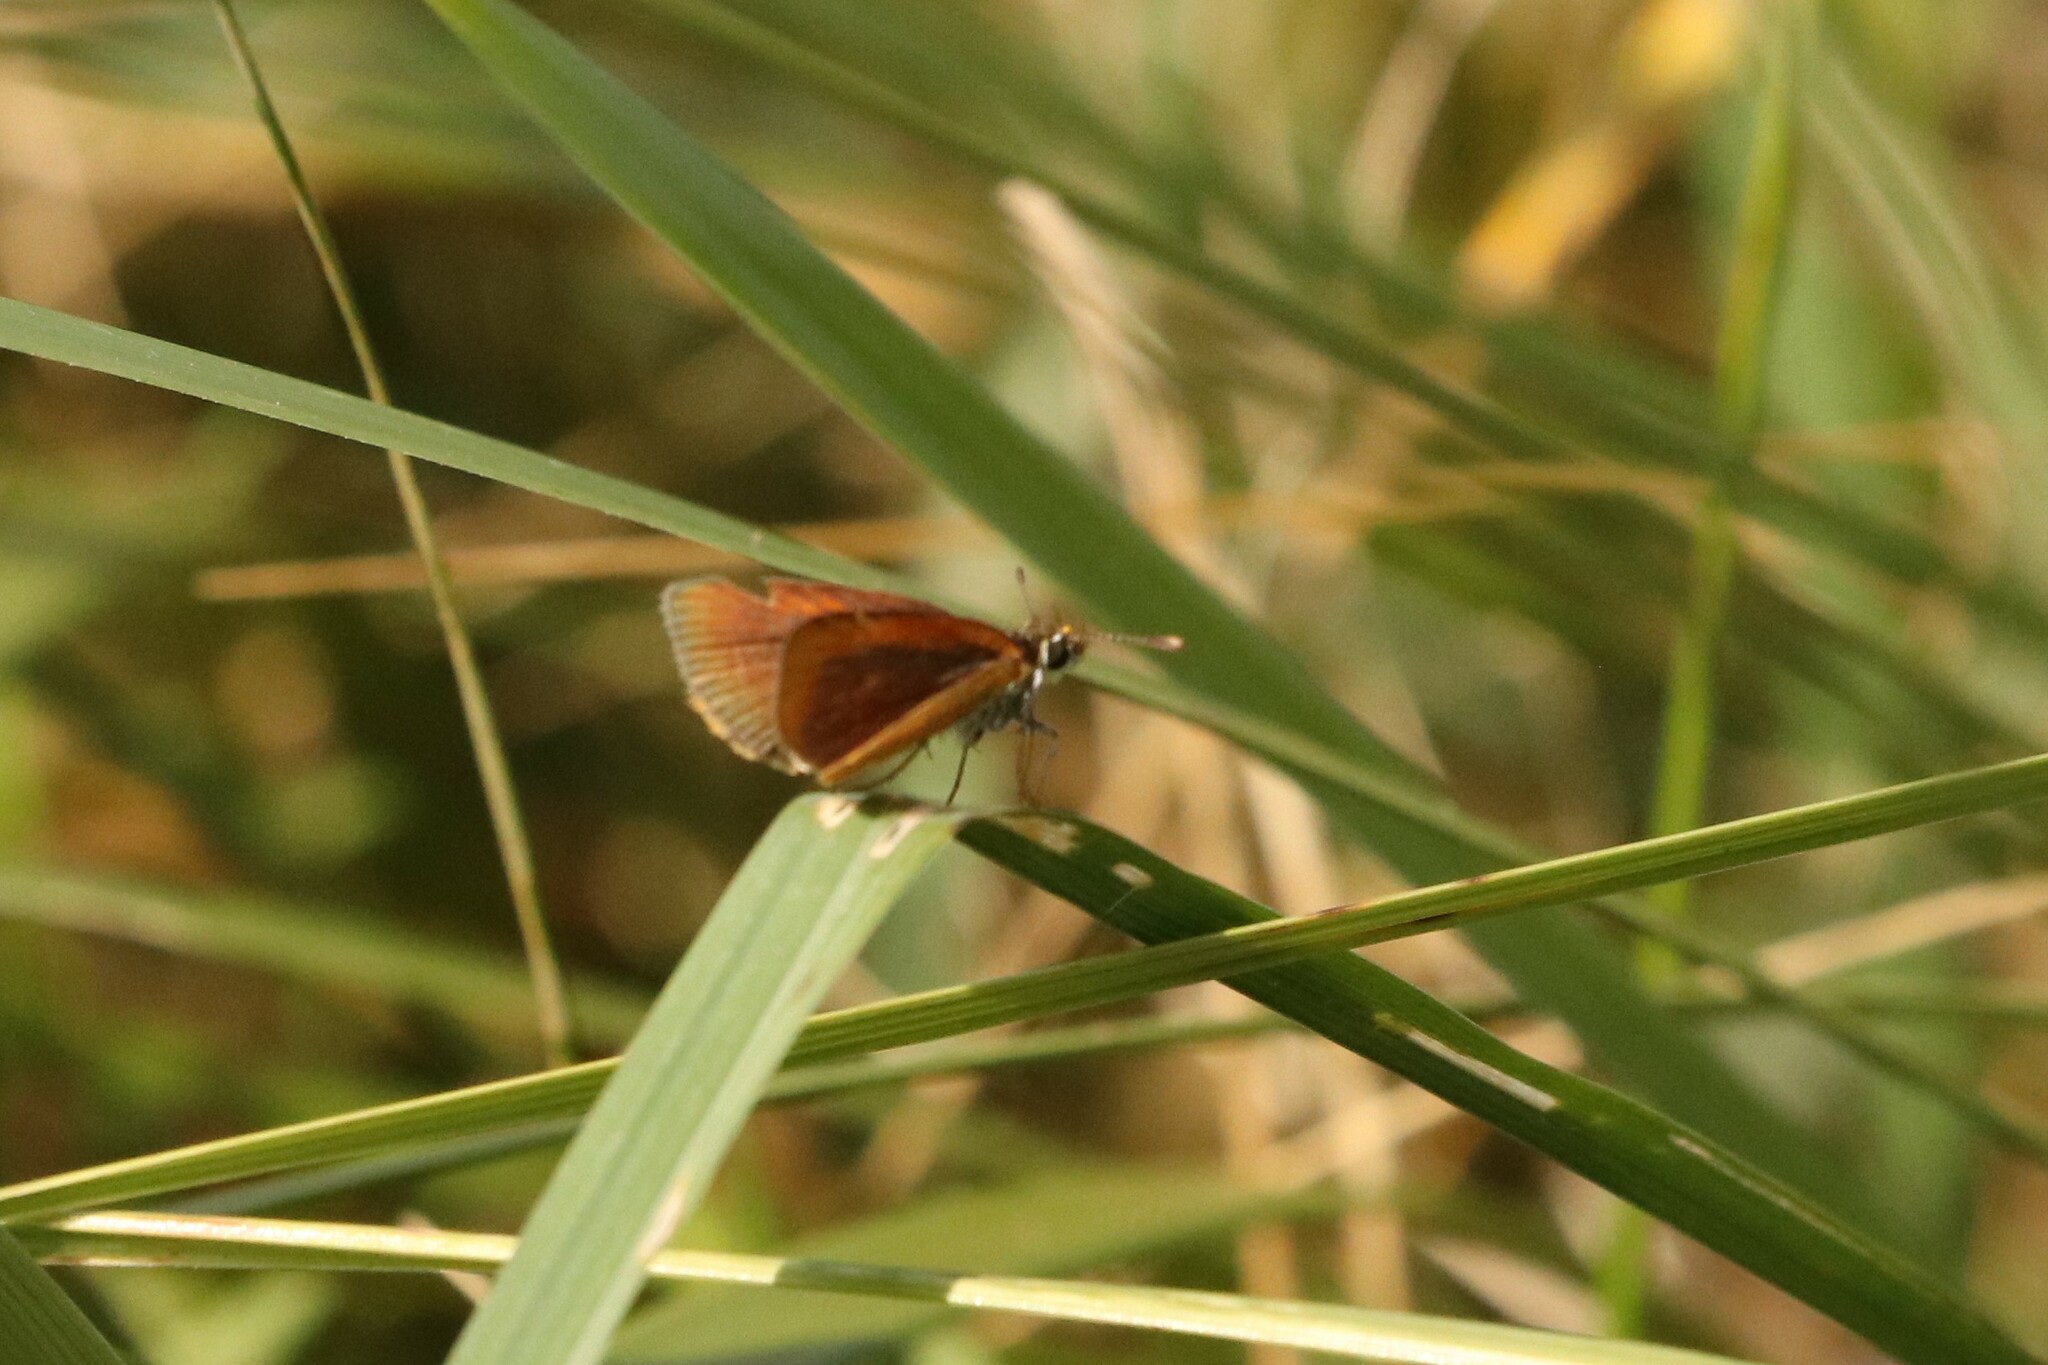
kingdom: Animalia
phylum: Arthropoda
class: Insecta
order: Lepidoptera
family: Hesperiidae
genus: Ancyloxypha
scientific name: Ancyloxypha numitor
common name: Least skipper
